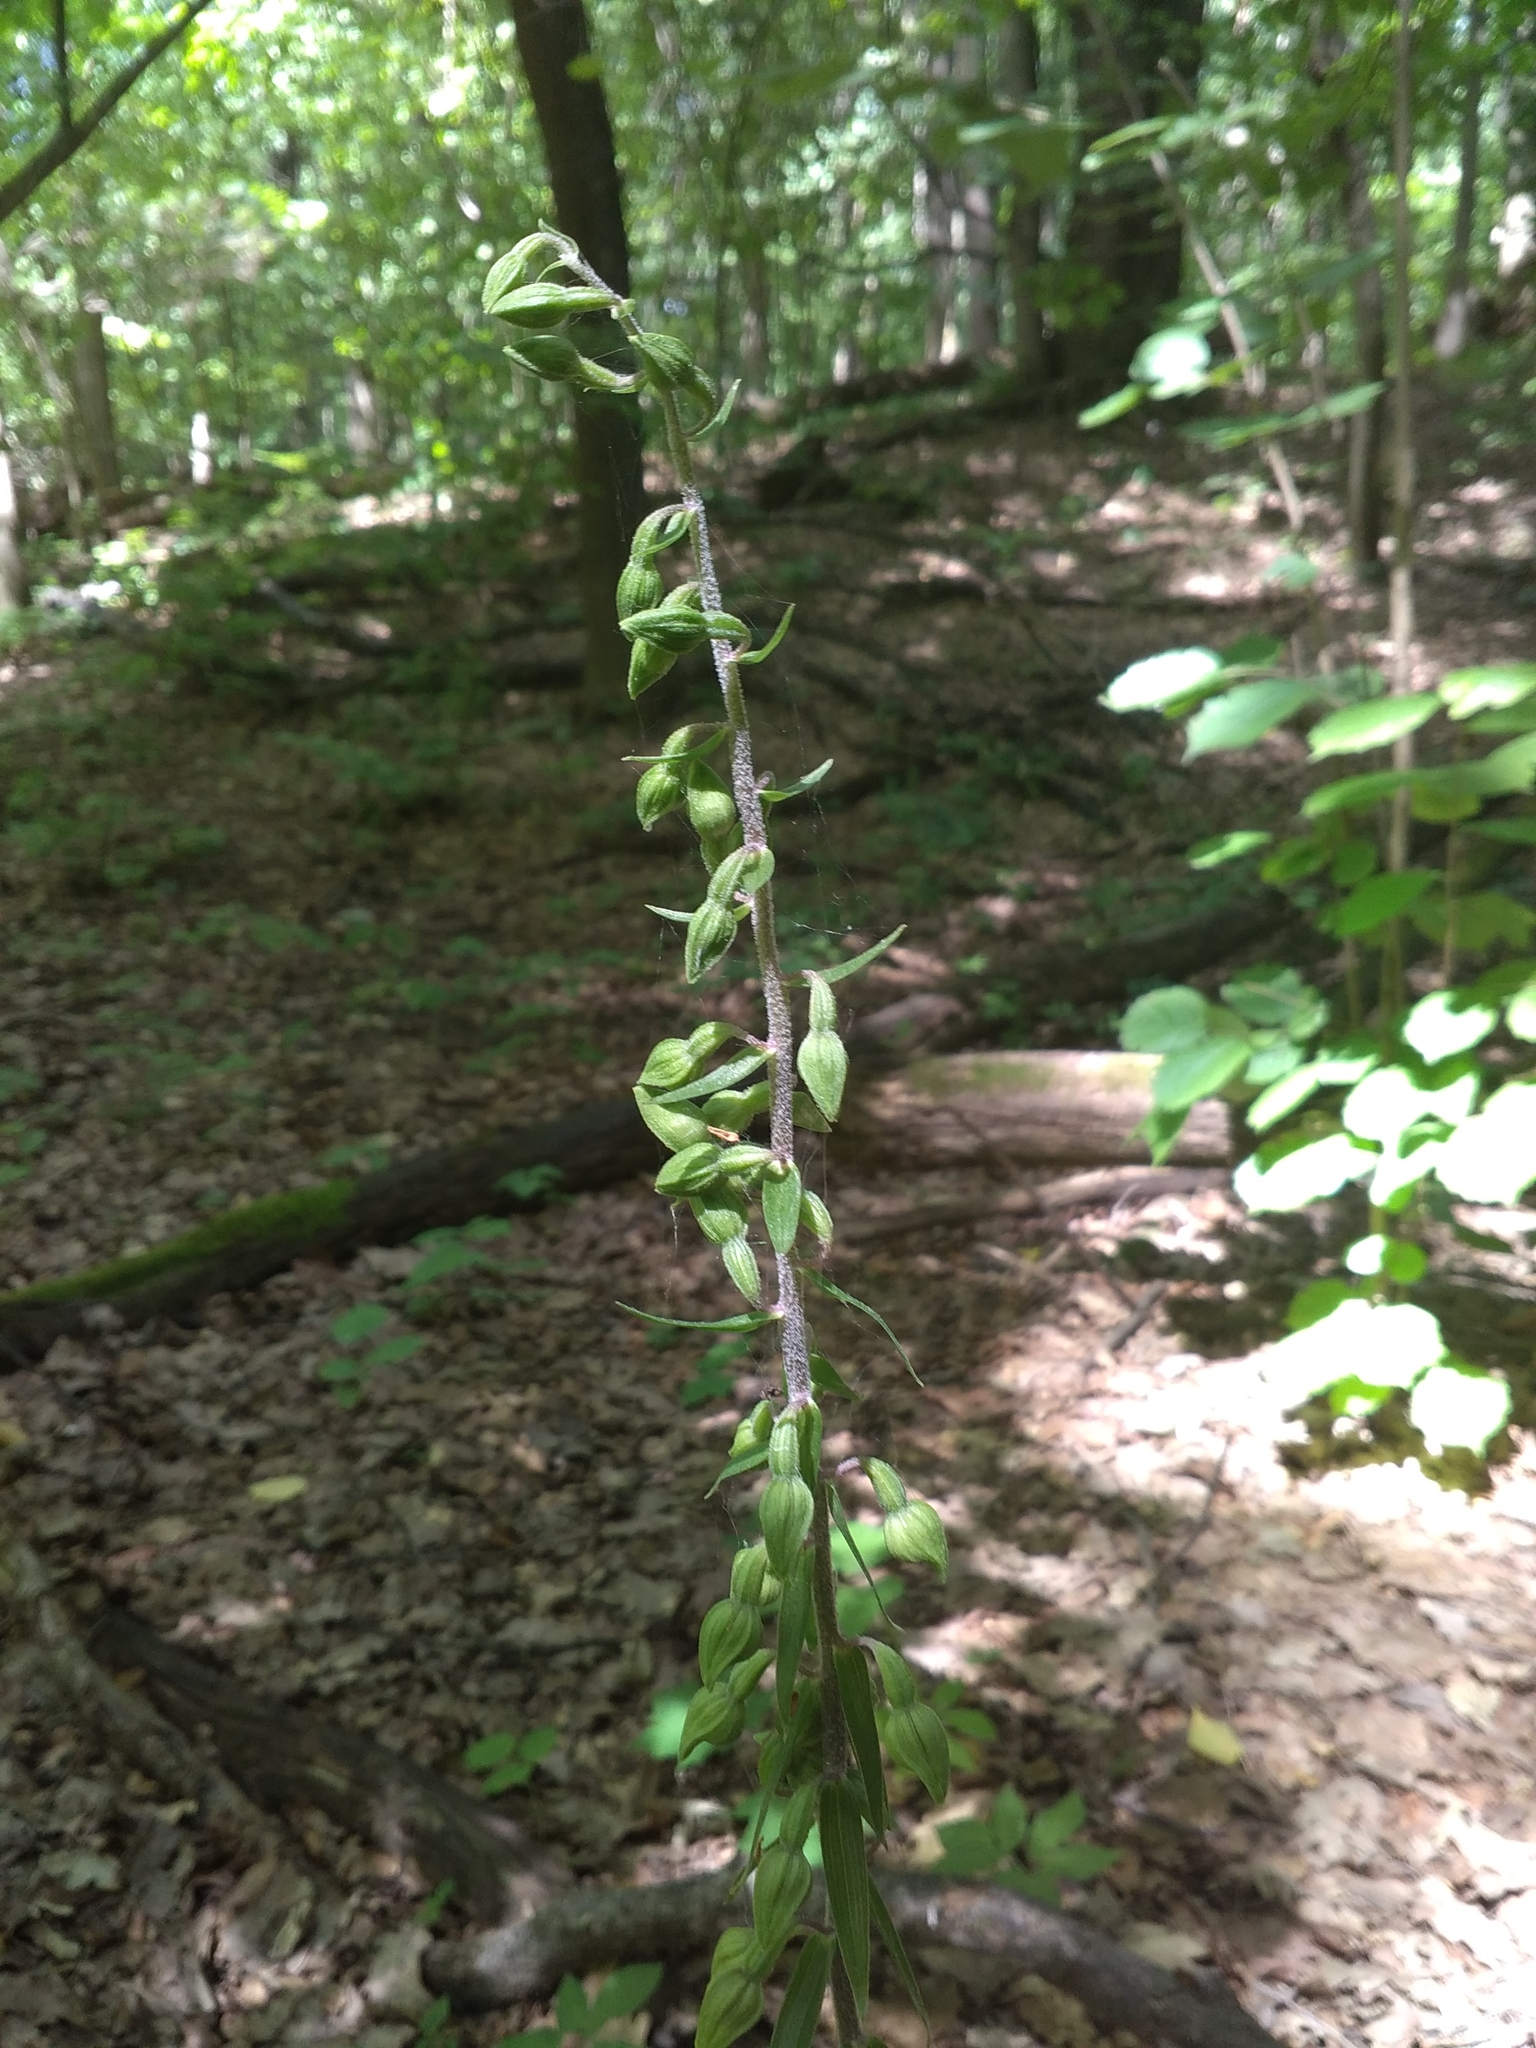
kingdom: Plantae
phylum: Tracheophyta
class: Liliopsida
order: Asparagales
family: Orchidaceae
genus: Epipactis
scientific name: Epipactis helleborine
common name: Broad-leaved helleborine
